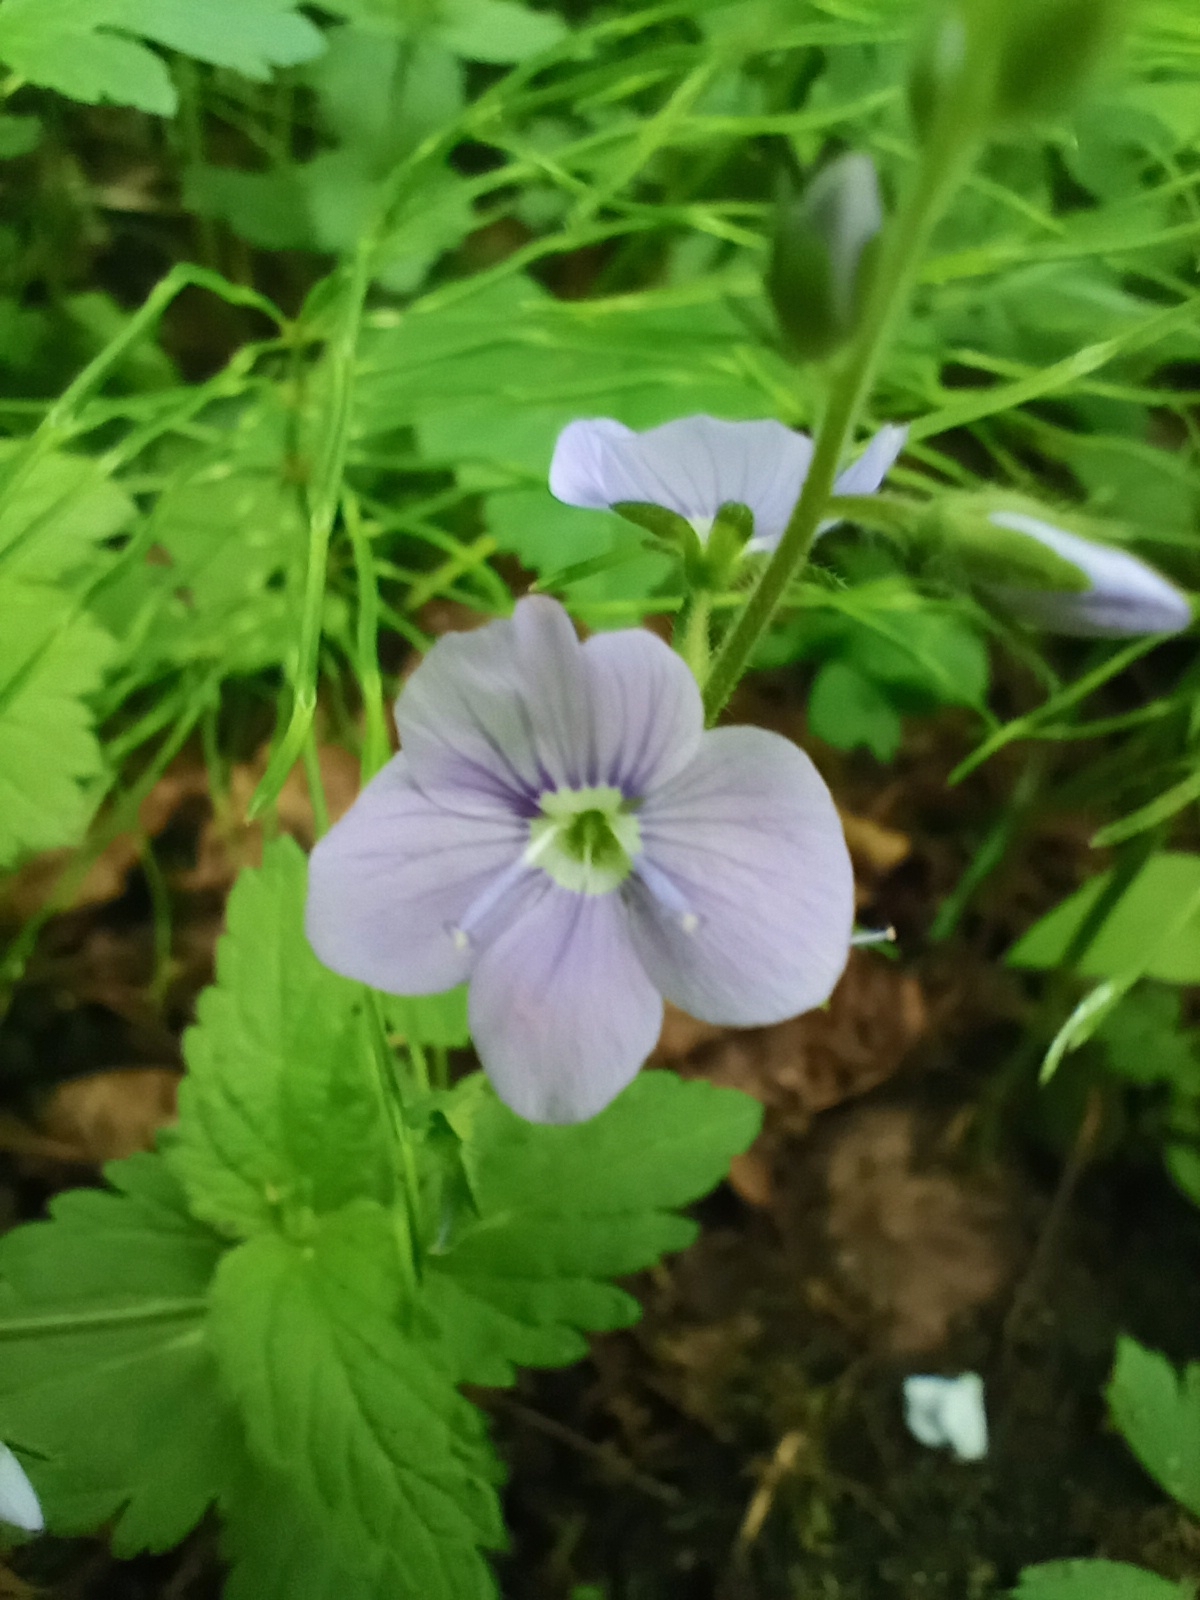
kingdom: Plantae
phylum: Tracheophyta
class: Magnoliopsida
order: Lamiales
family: Plantaginaceae
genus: Veronica
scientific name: Veronica chamaedrys
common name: Germander speedwell
